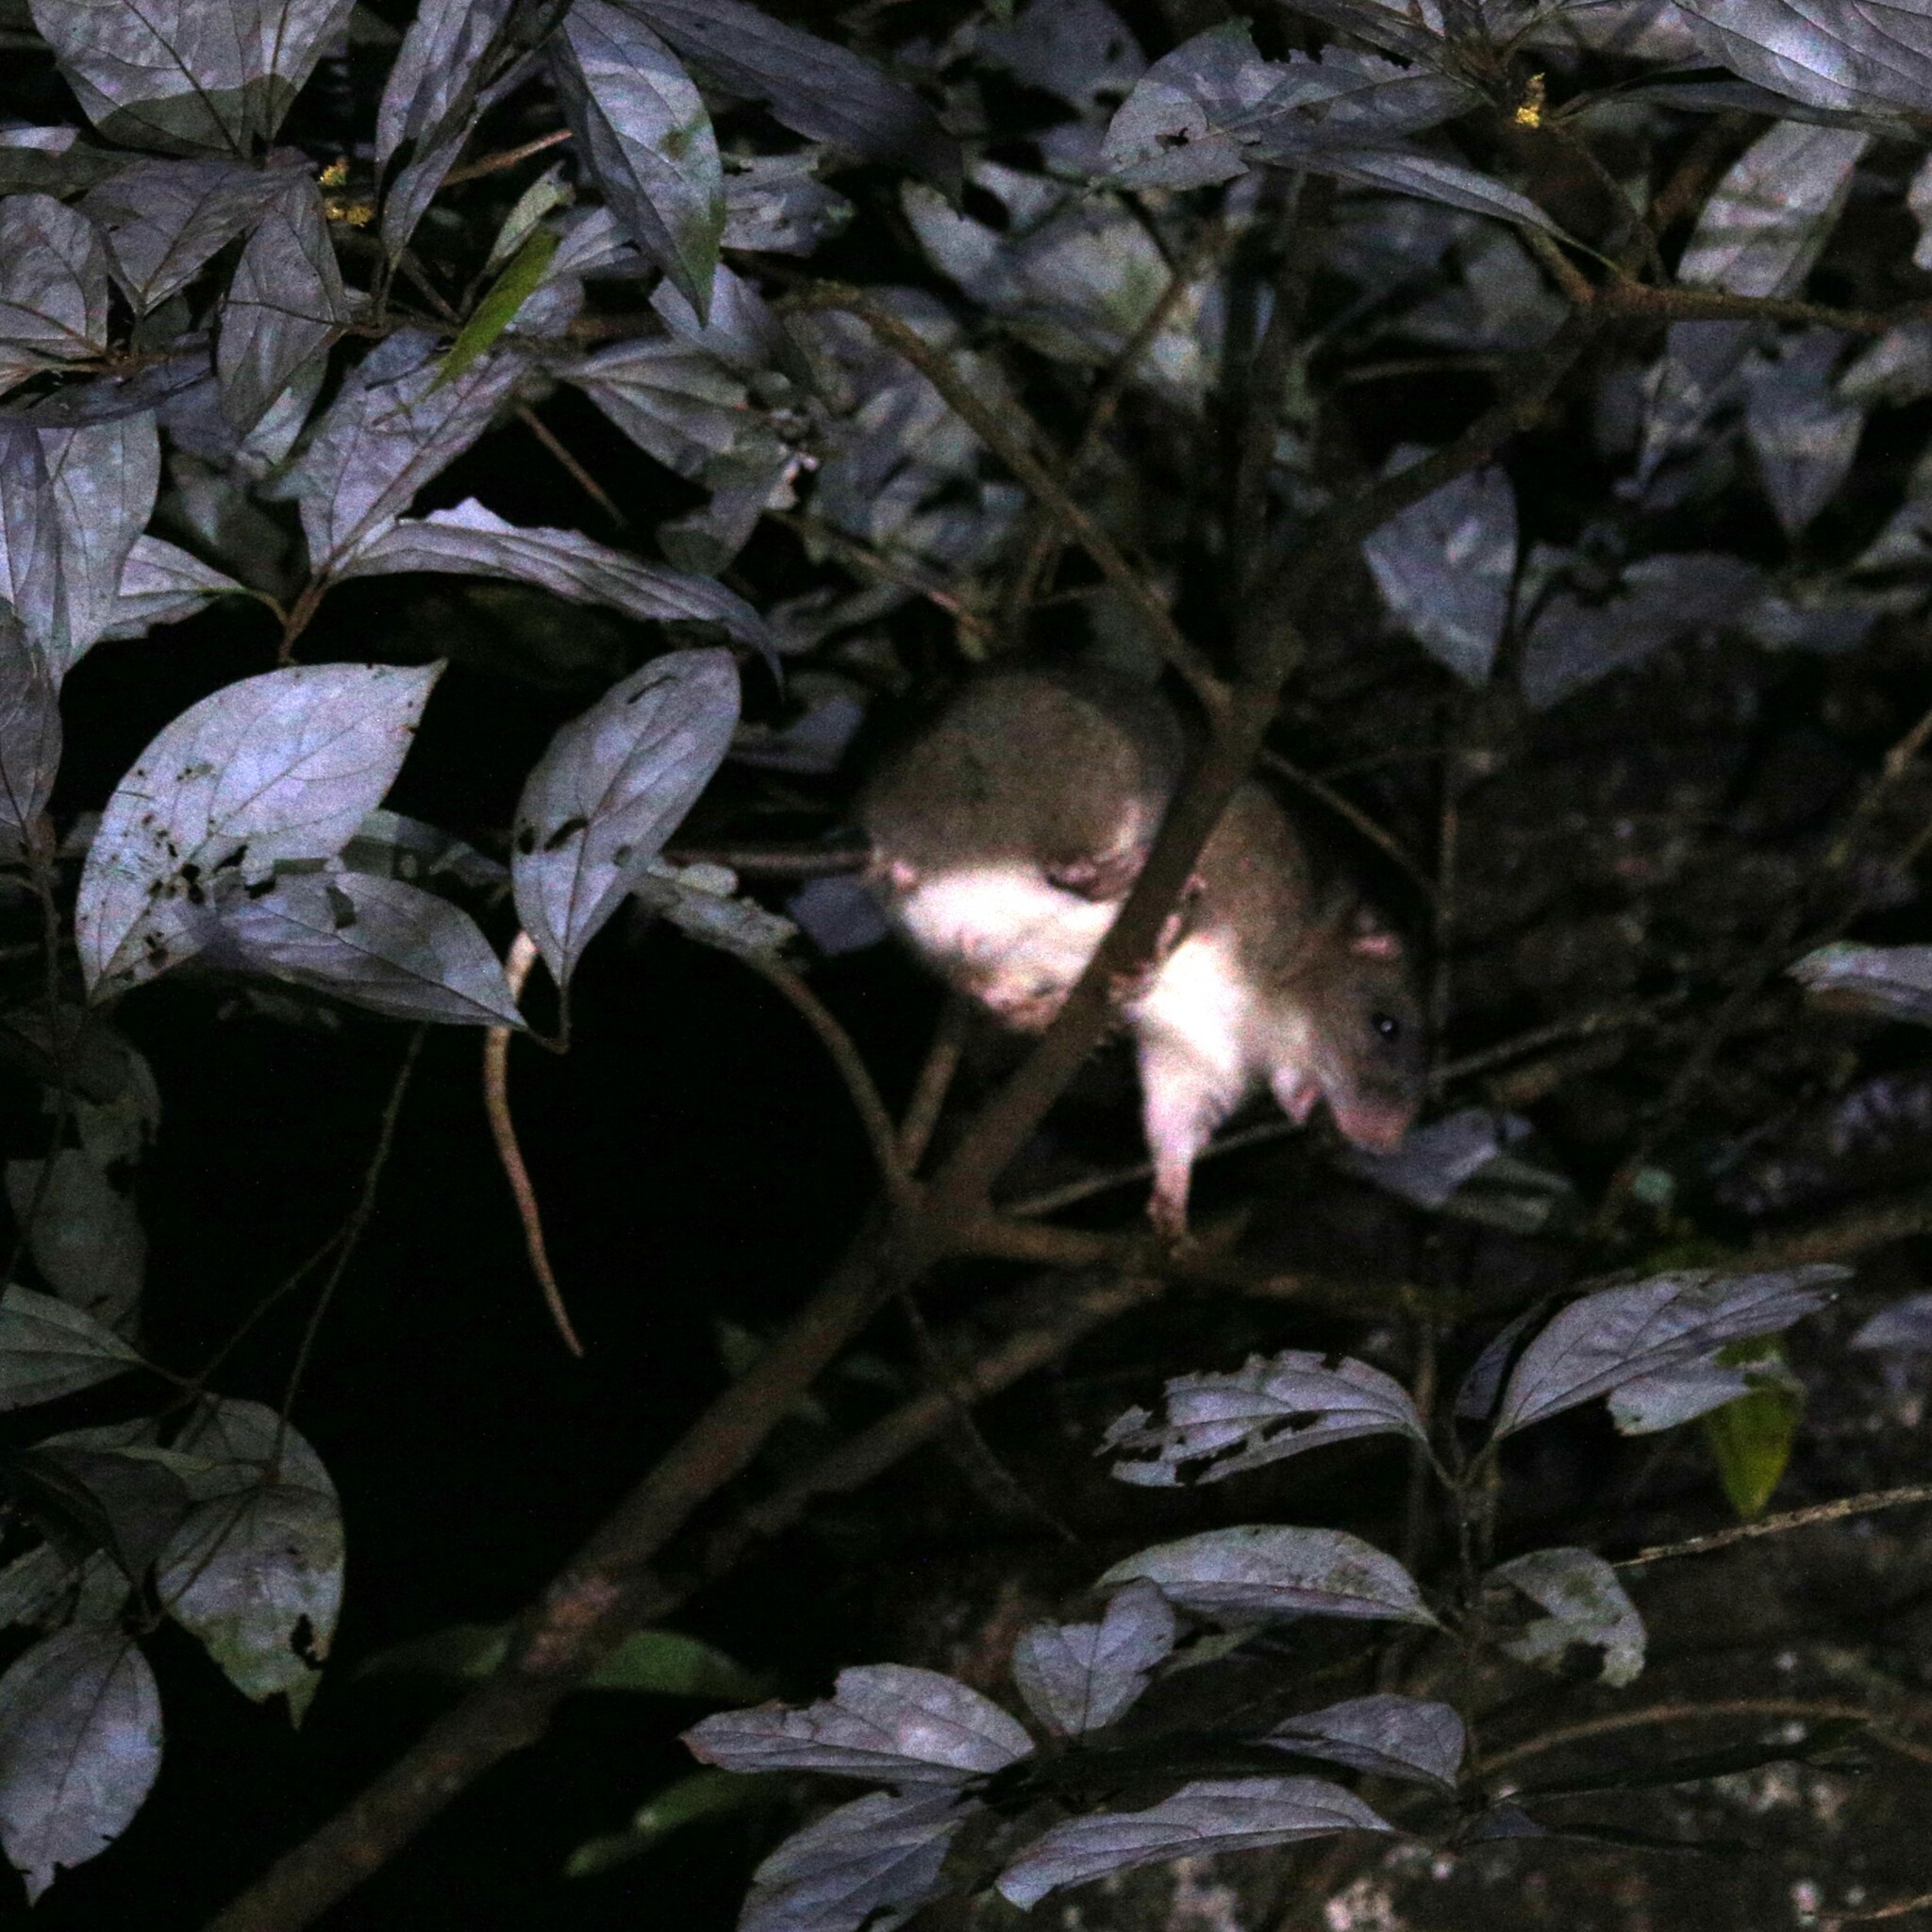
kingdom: Animalia
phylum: Chordata
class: Mammalia
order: Rodentia
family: Muridae
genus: Uromys
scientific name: Uromys caudimaculatus
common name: Giant white-tailed uromys
